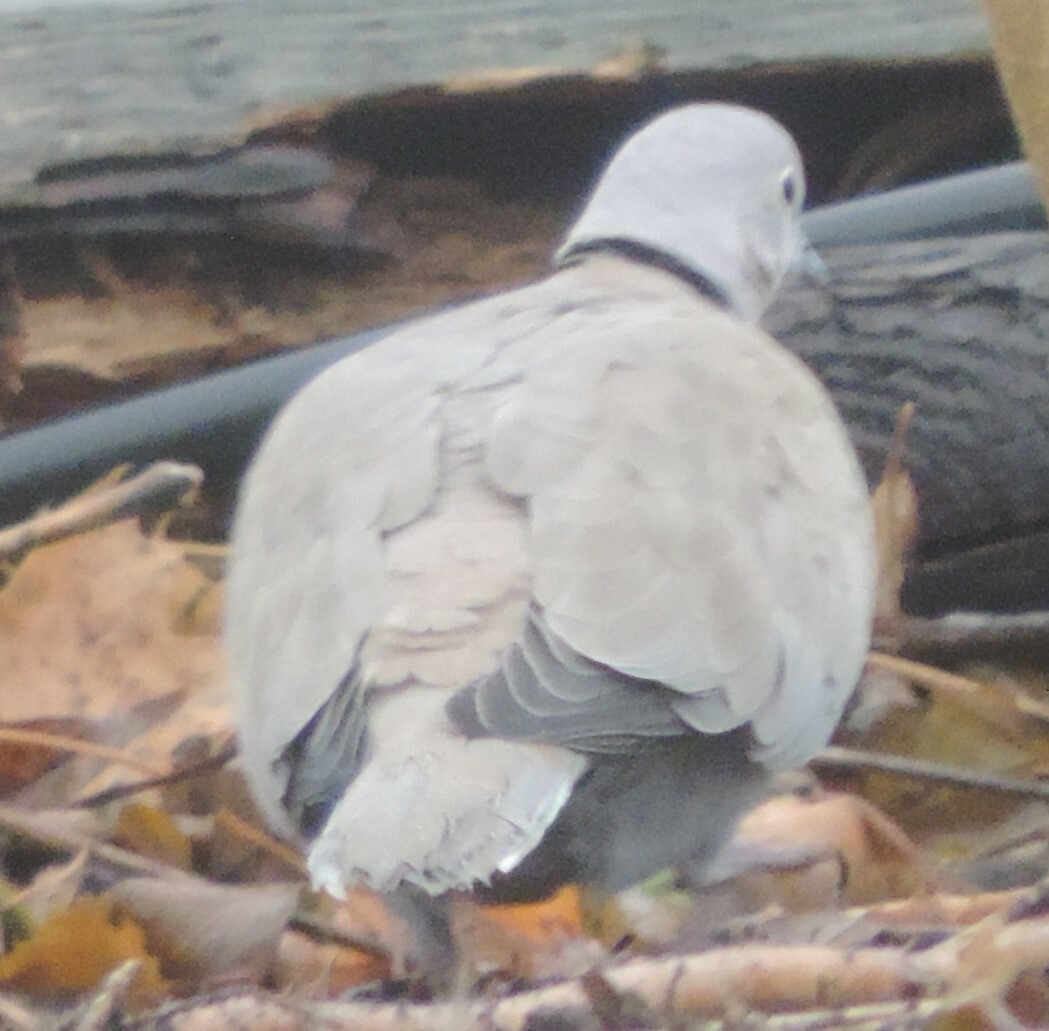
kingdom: Animalia
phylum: Chordata
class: Aves
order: Columbiformes
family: Columbidae
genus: Streptopelia
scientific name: Streptopelia decaocto
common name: Eurasian collared dove
